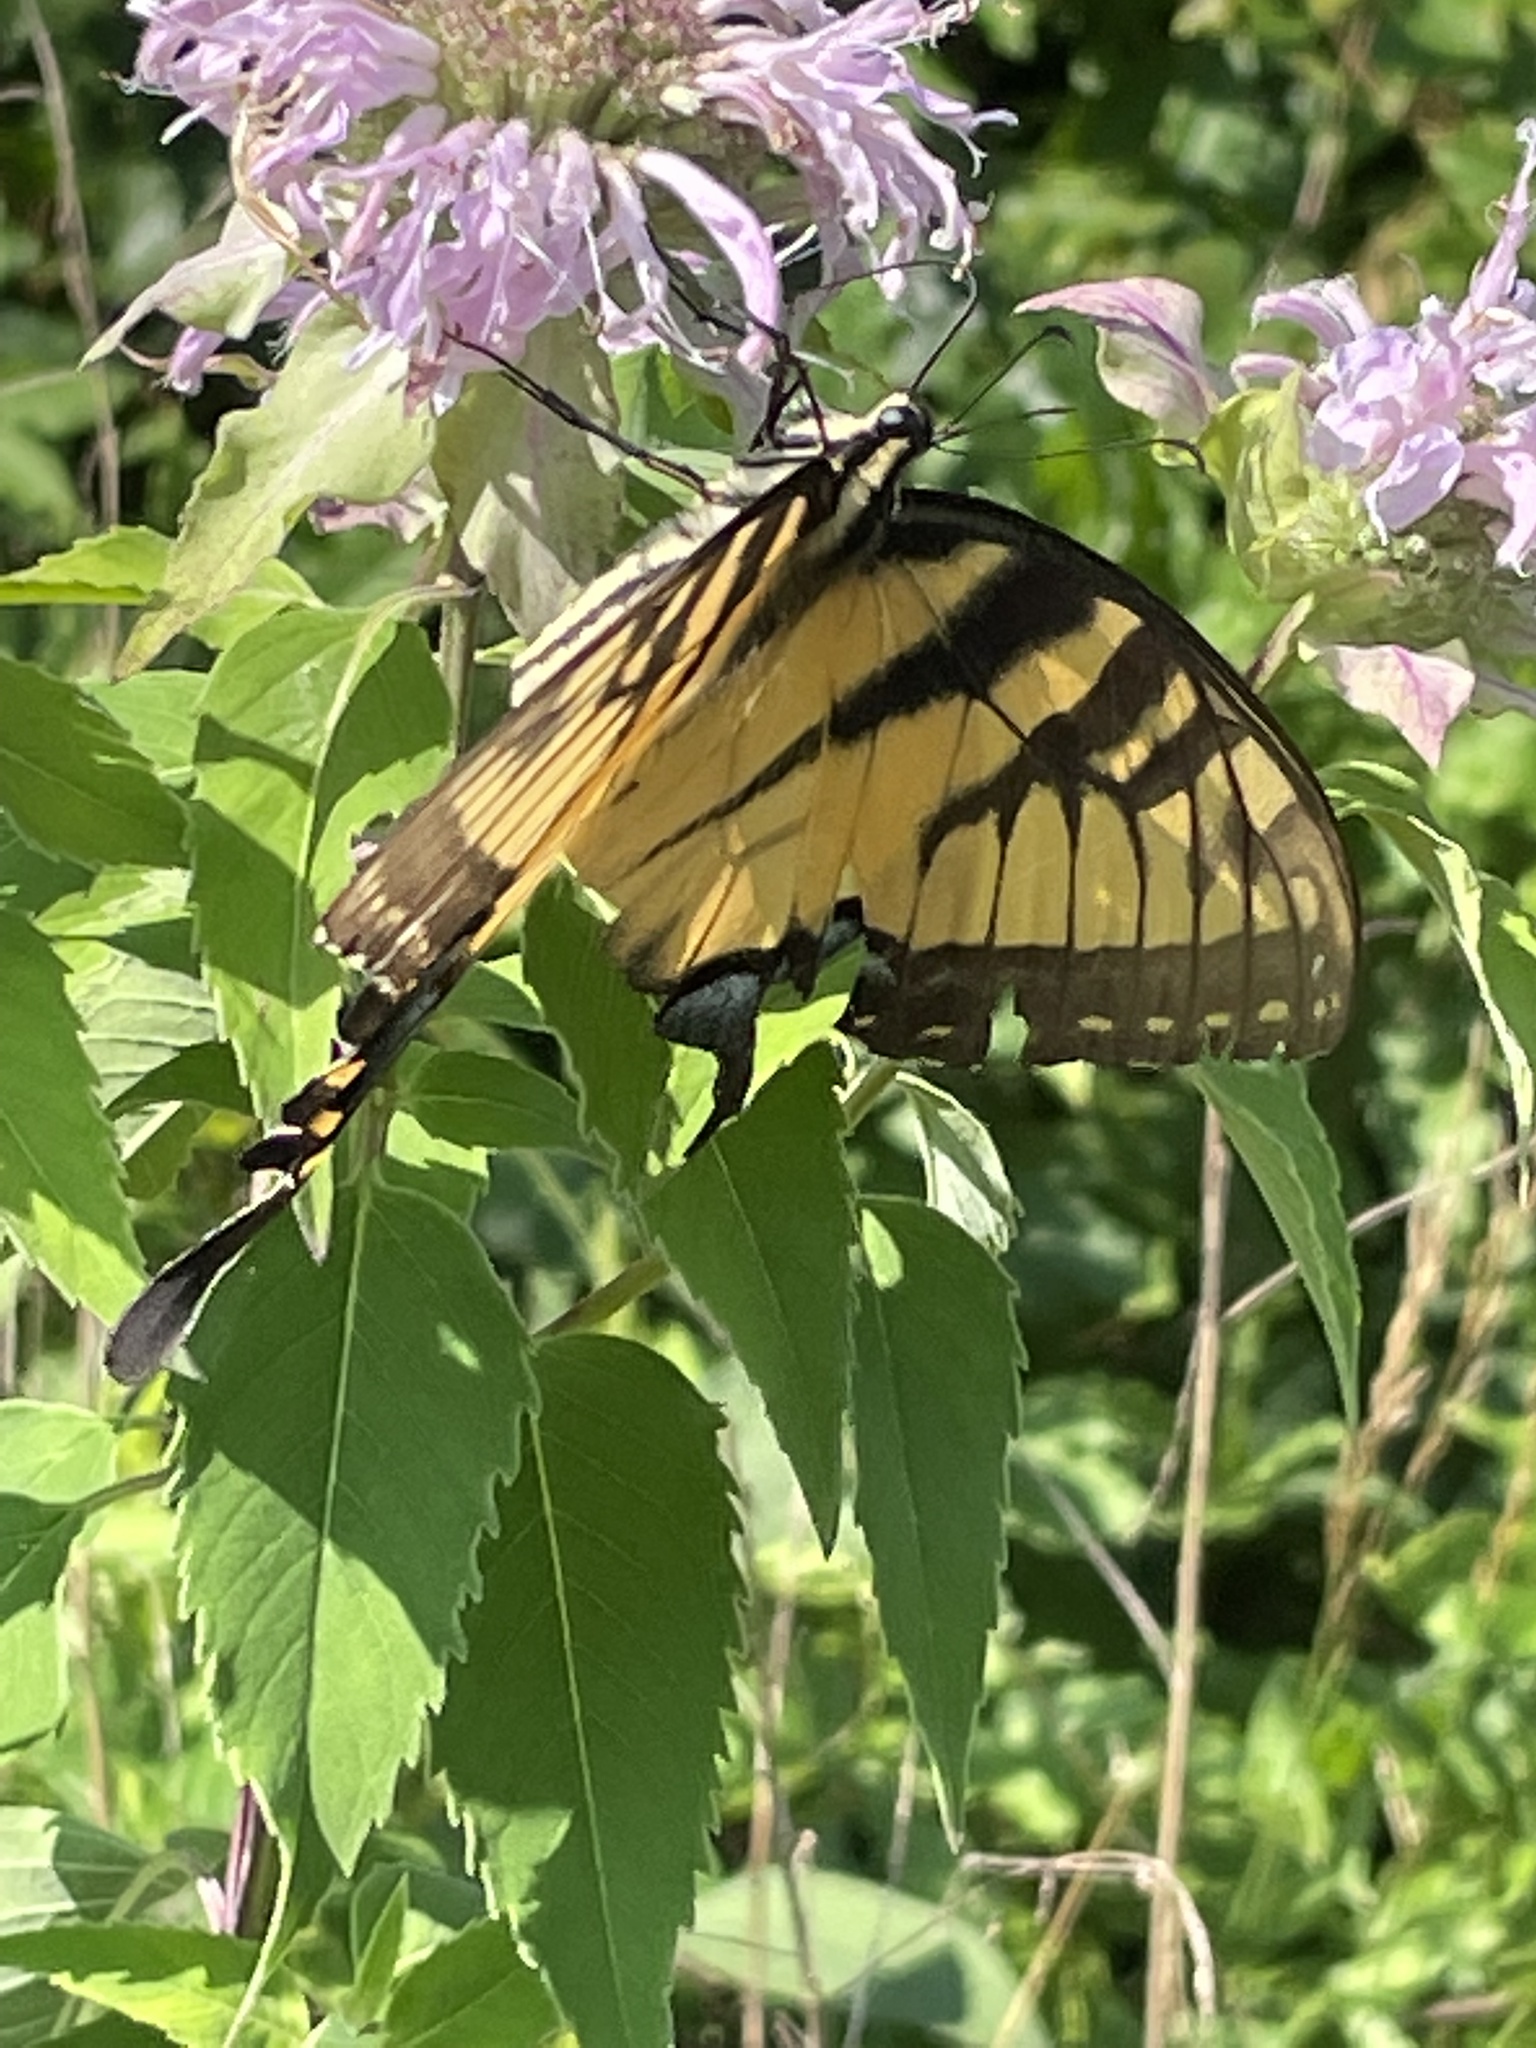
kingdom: Animalia
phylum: Arthropoda
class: Insecta
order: Lepidoptera
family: Papilionidae
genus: Papilio
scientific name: Papilio glaucus
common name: Tiger swallowtail
